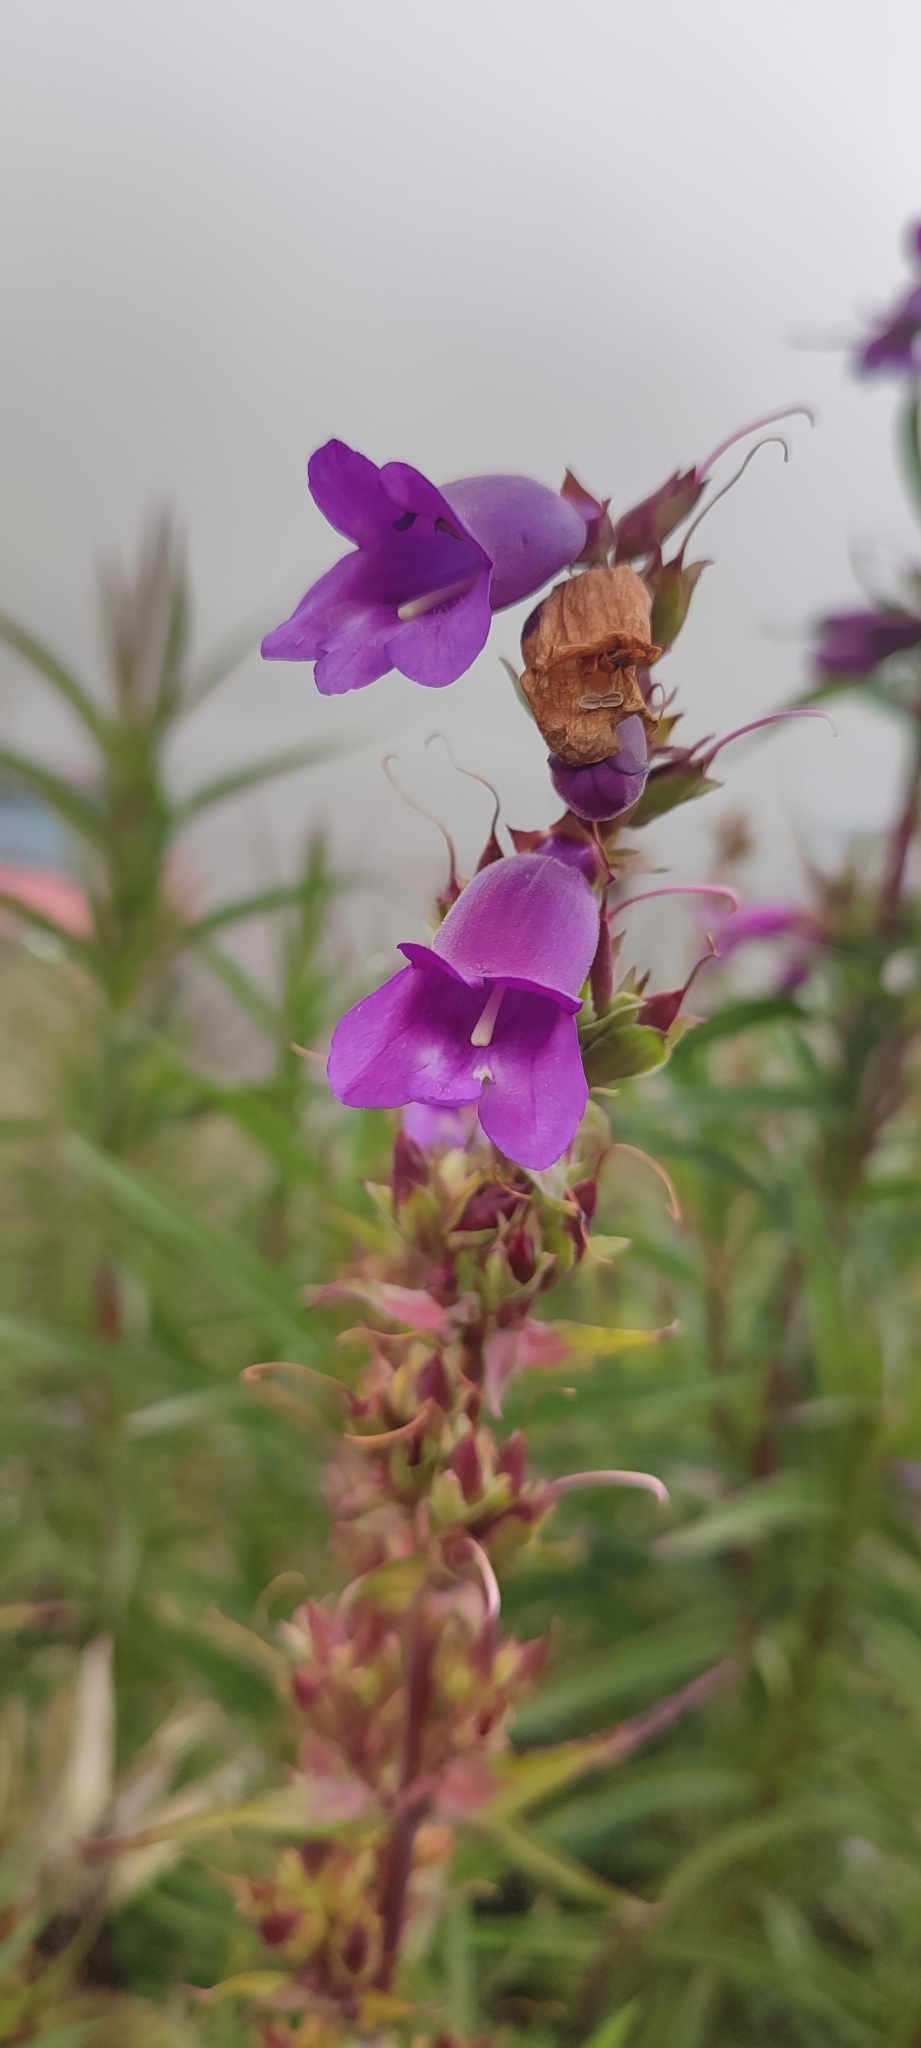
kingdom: Plantae
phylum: Tracheophyta
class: Magnoliopsida
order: Lamiales
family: Plantaginaceae
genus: Penstemon
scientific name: Penstemon gentianoides
